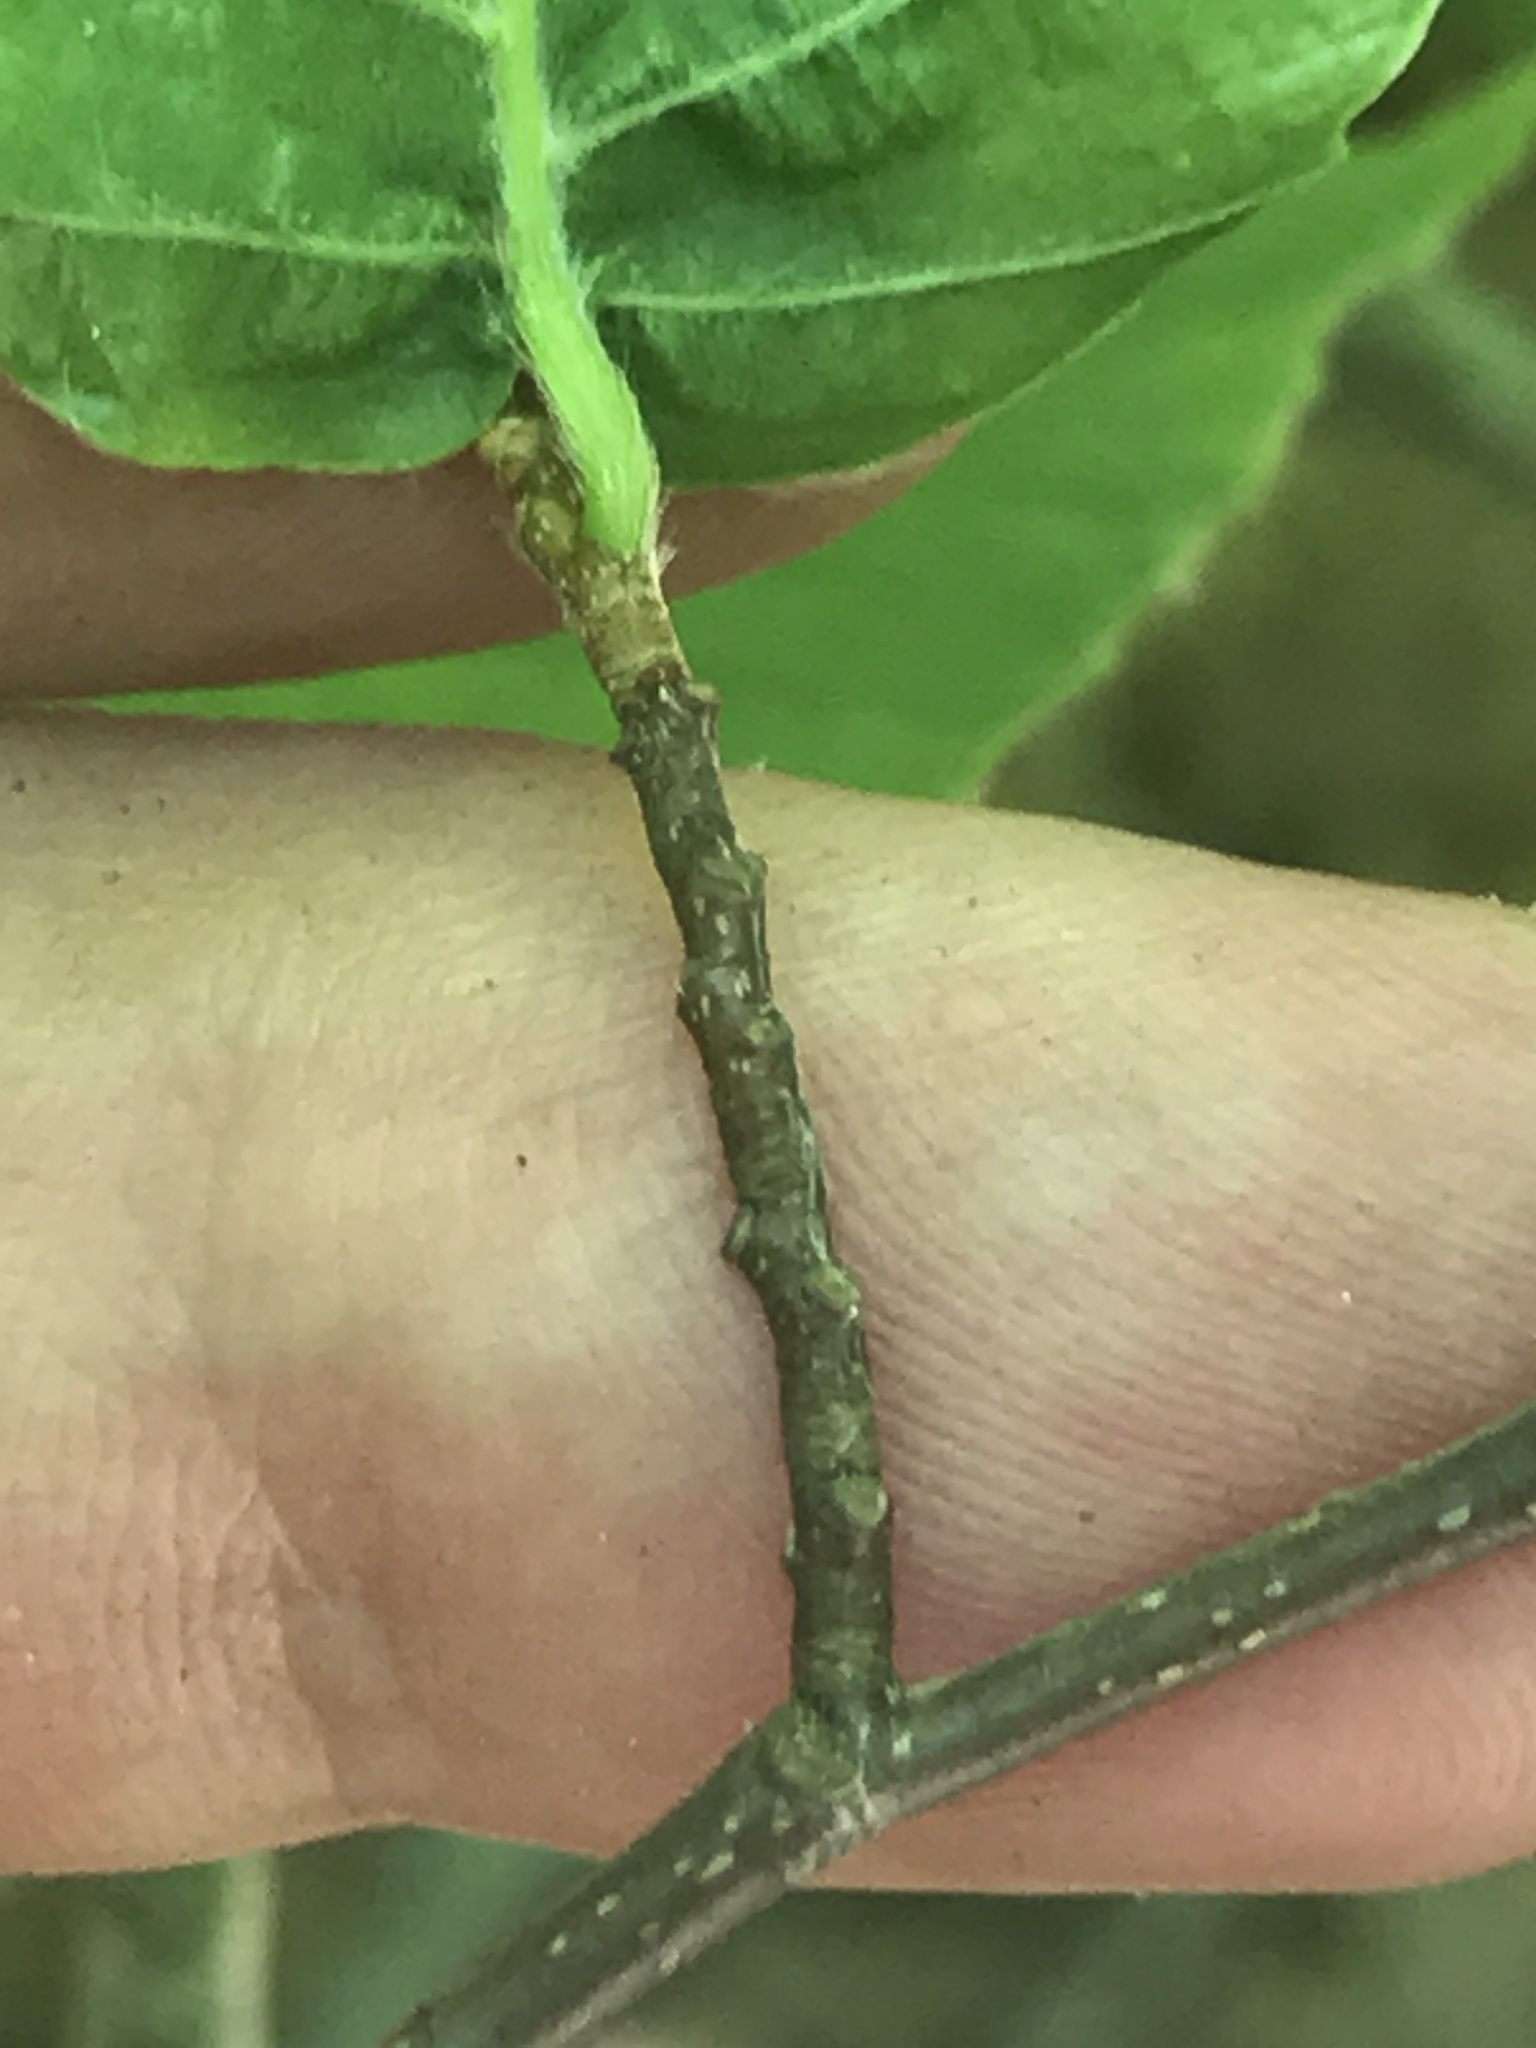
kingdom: Plantae
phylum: Tracheophyta
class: Magnoliopsida
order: Fagales
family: Fagaceae
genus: Fagus
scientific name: Fagus grandifolia
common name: American beech
